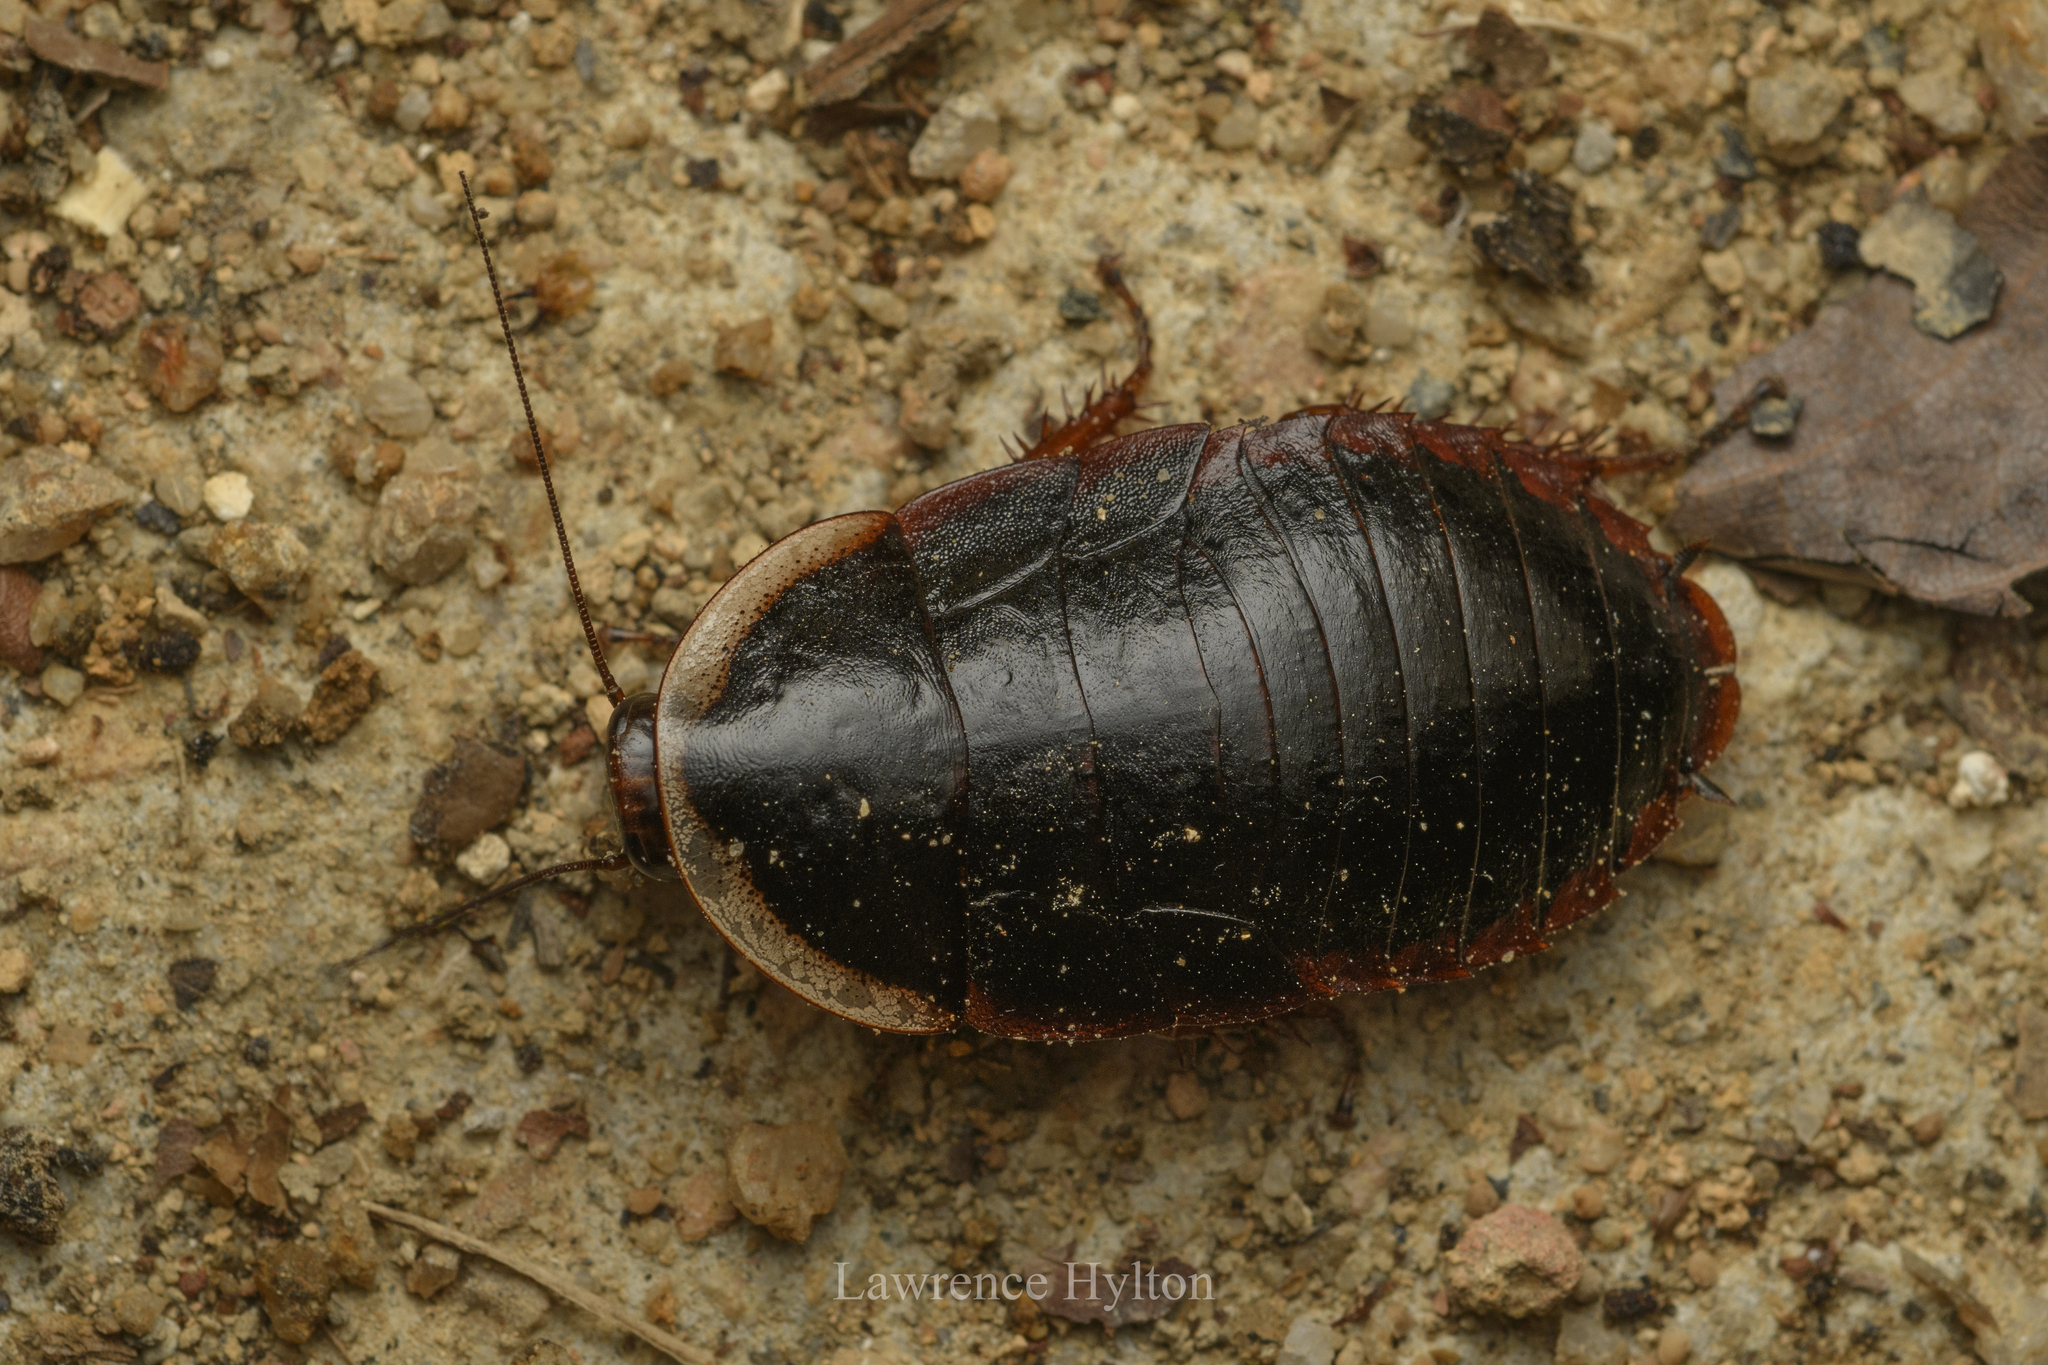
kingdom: Animalia
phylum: Arthropoda
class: Insecta
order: Blattodea
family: Blaberidae
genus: Opisthoplatia
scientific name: Opisthoplatia orientalis
